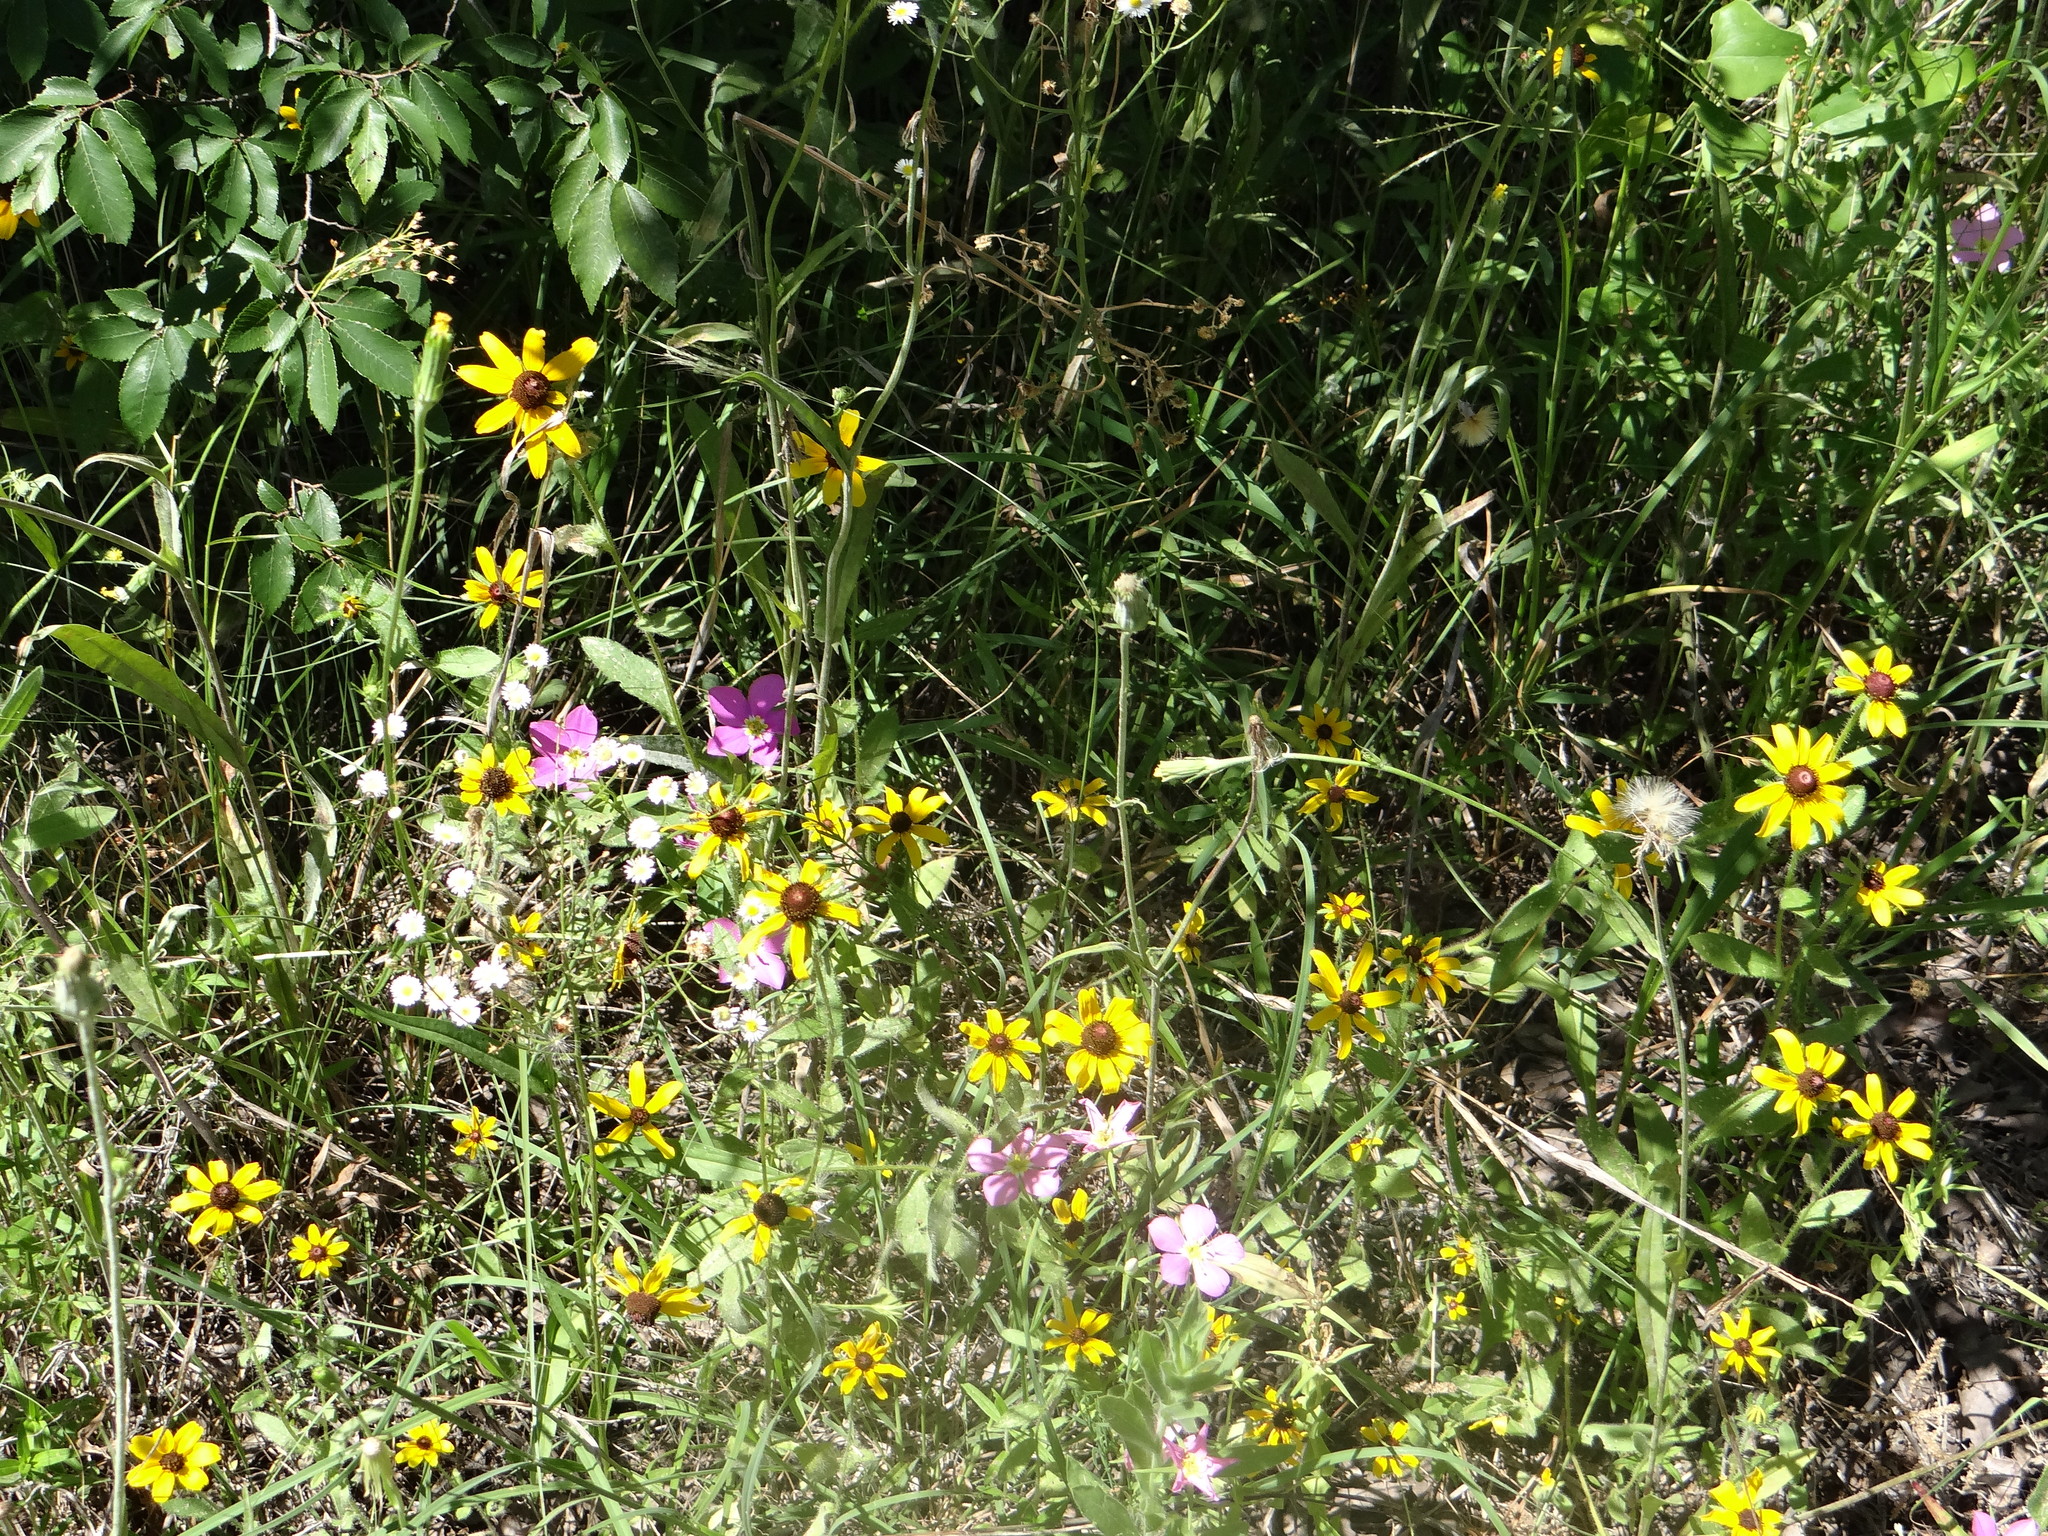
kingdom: Plantae
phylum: Tracheophyta
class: Magnoliopsida
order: Asterales
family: Asteraceae
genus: Rudbeckia
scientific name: Rudbeckia hirta
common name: Black-eyed-susan
